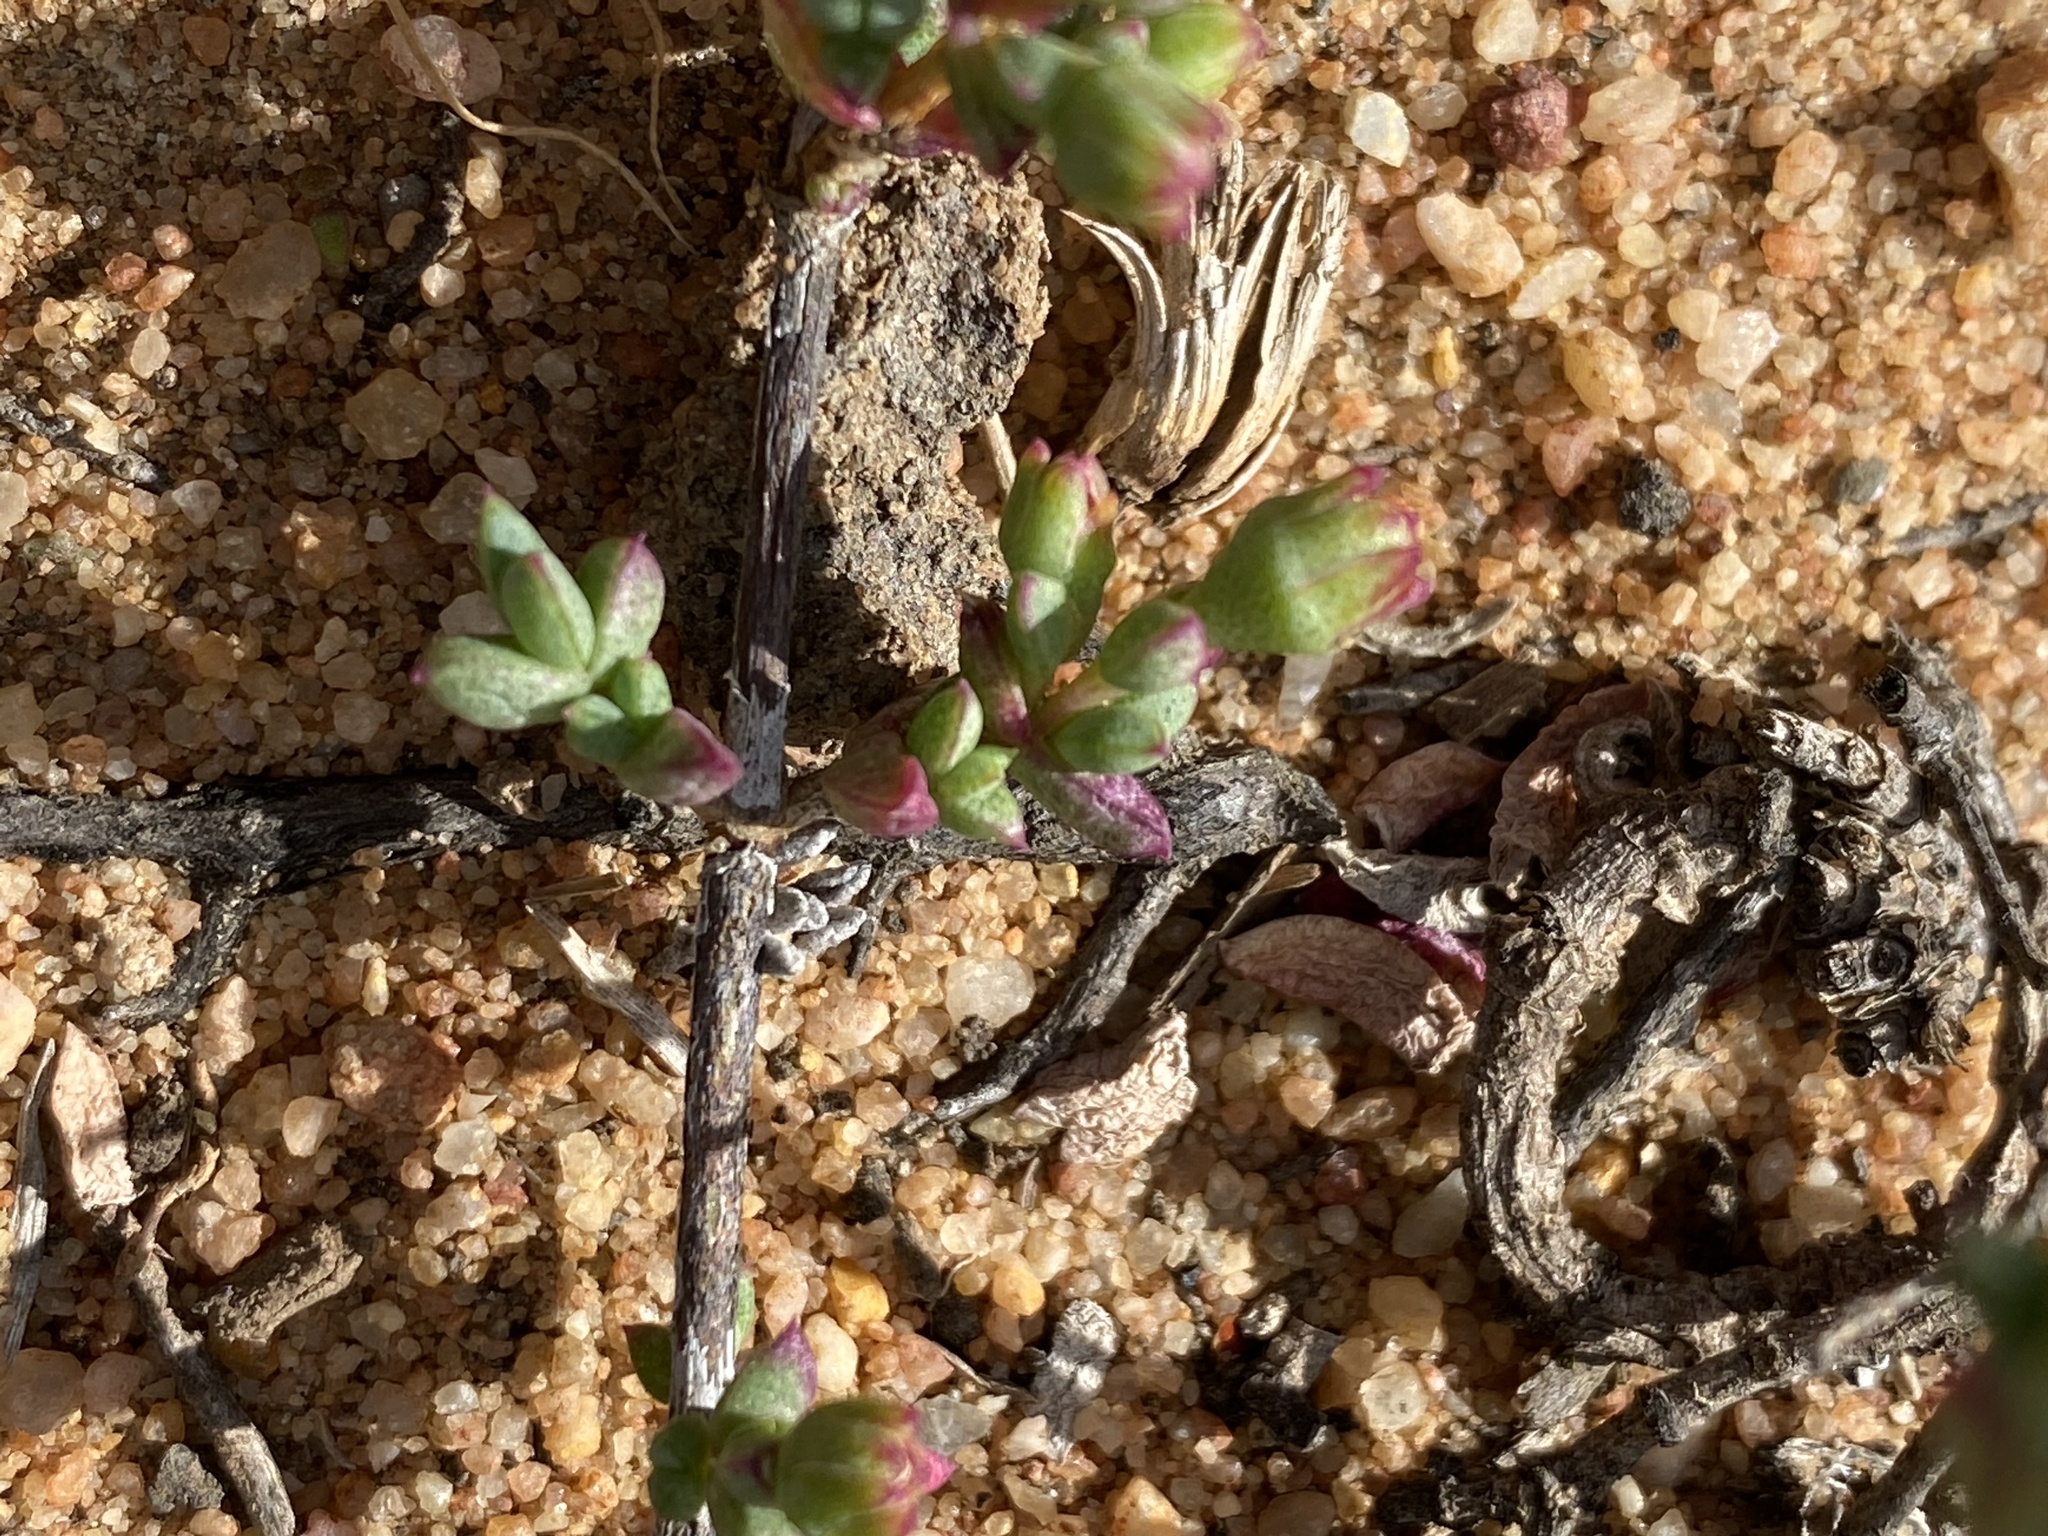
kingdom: Plantae
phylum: Tracheophyta
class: Magnoliopsida
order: Caryophyllales
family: Aizoaceae
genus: Ruschia
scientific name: Ruschia cymbifolia
